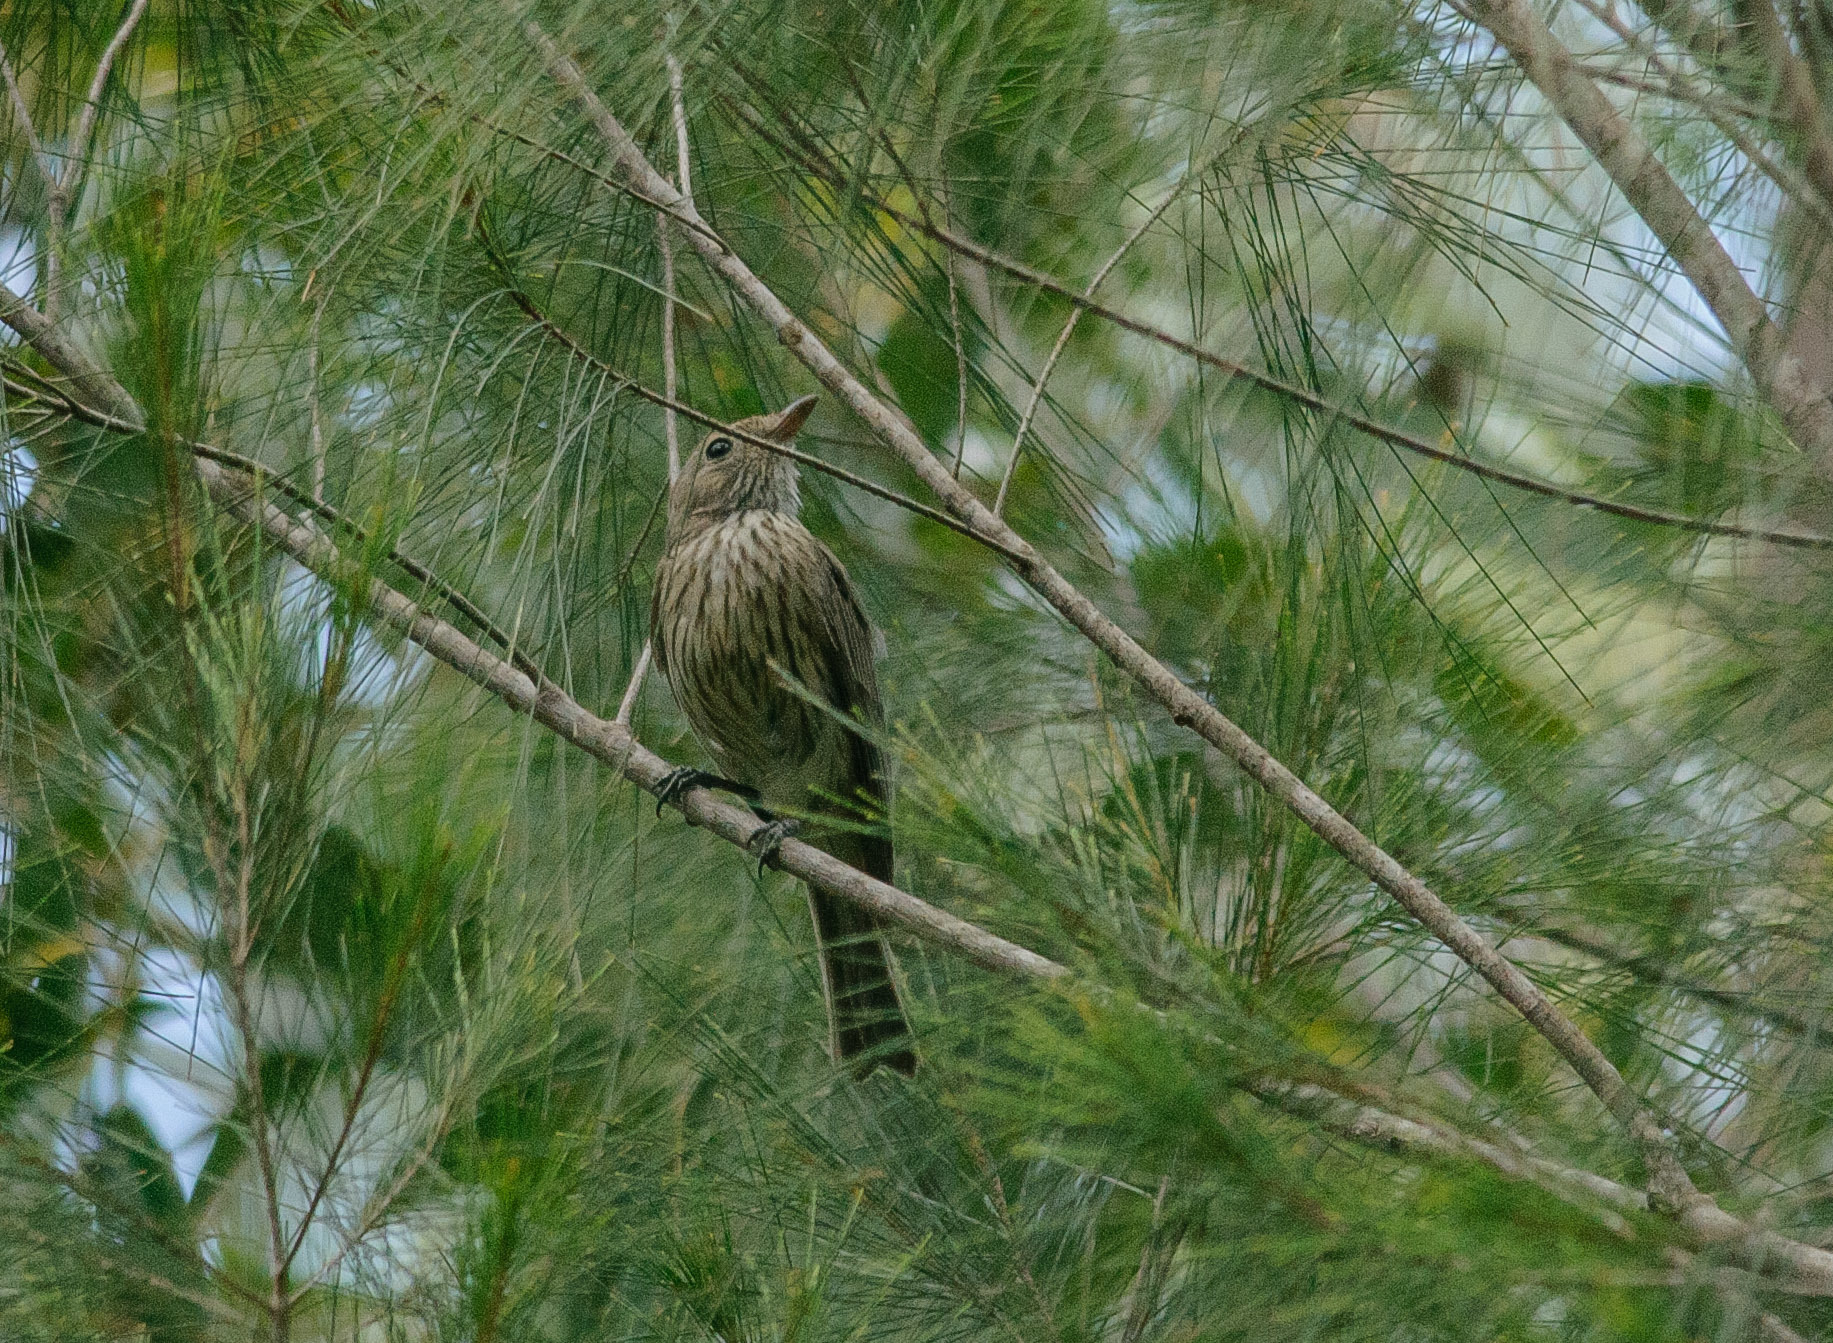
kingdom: Animalia
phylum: Chordata
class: Aves
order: Passeriformes
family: Pachycephalidae
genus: Pachycephala
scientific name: Pachycephala rufiventris
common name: Rufous whistler
